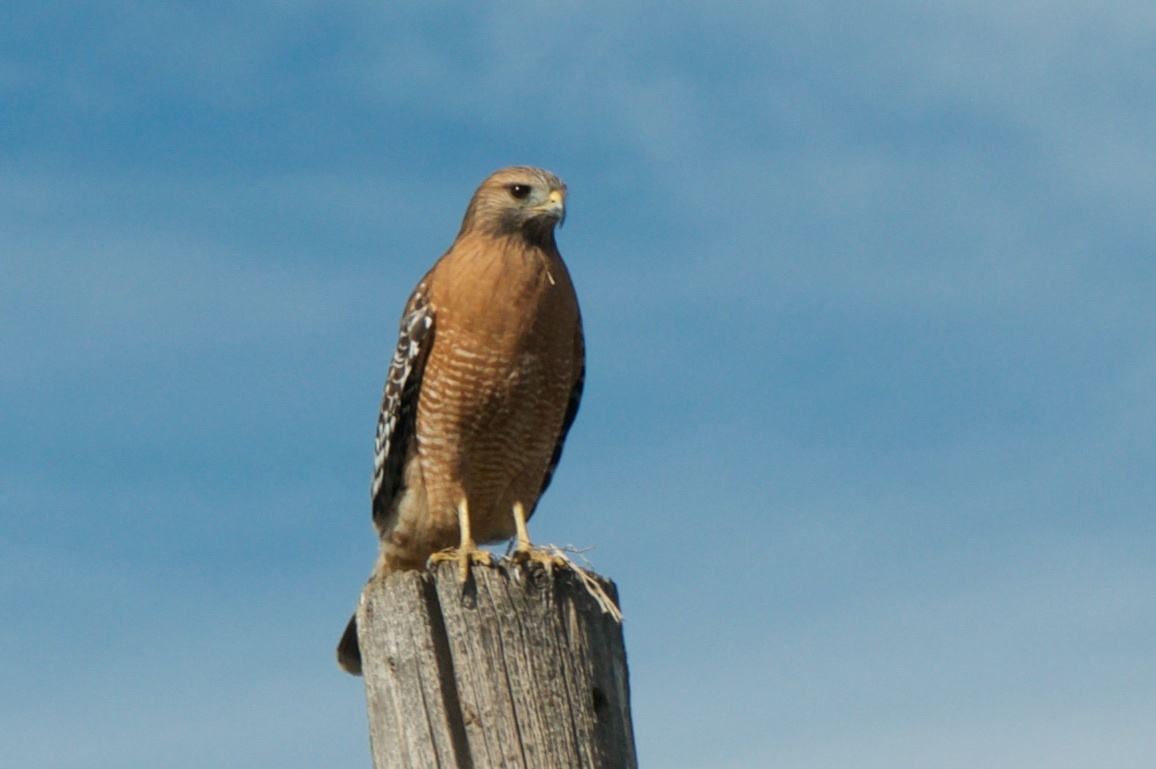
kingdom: Animalia
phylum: Chordata
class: Aves
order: Accipitriformes
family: Accipitridae
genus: Buteo
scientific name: Buteo lineatus
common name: Red-shouldered hawk
